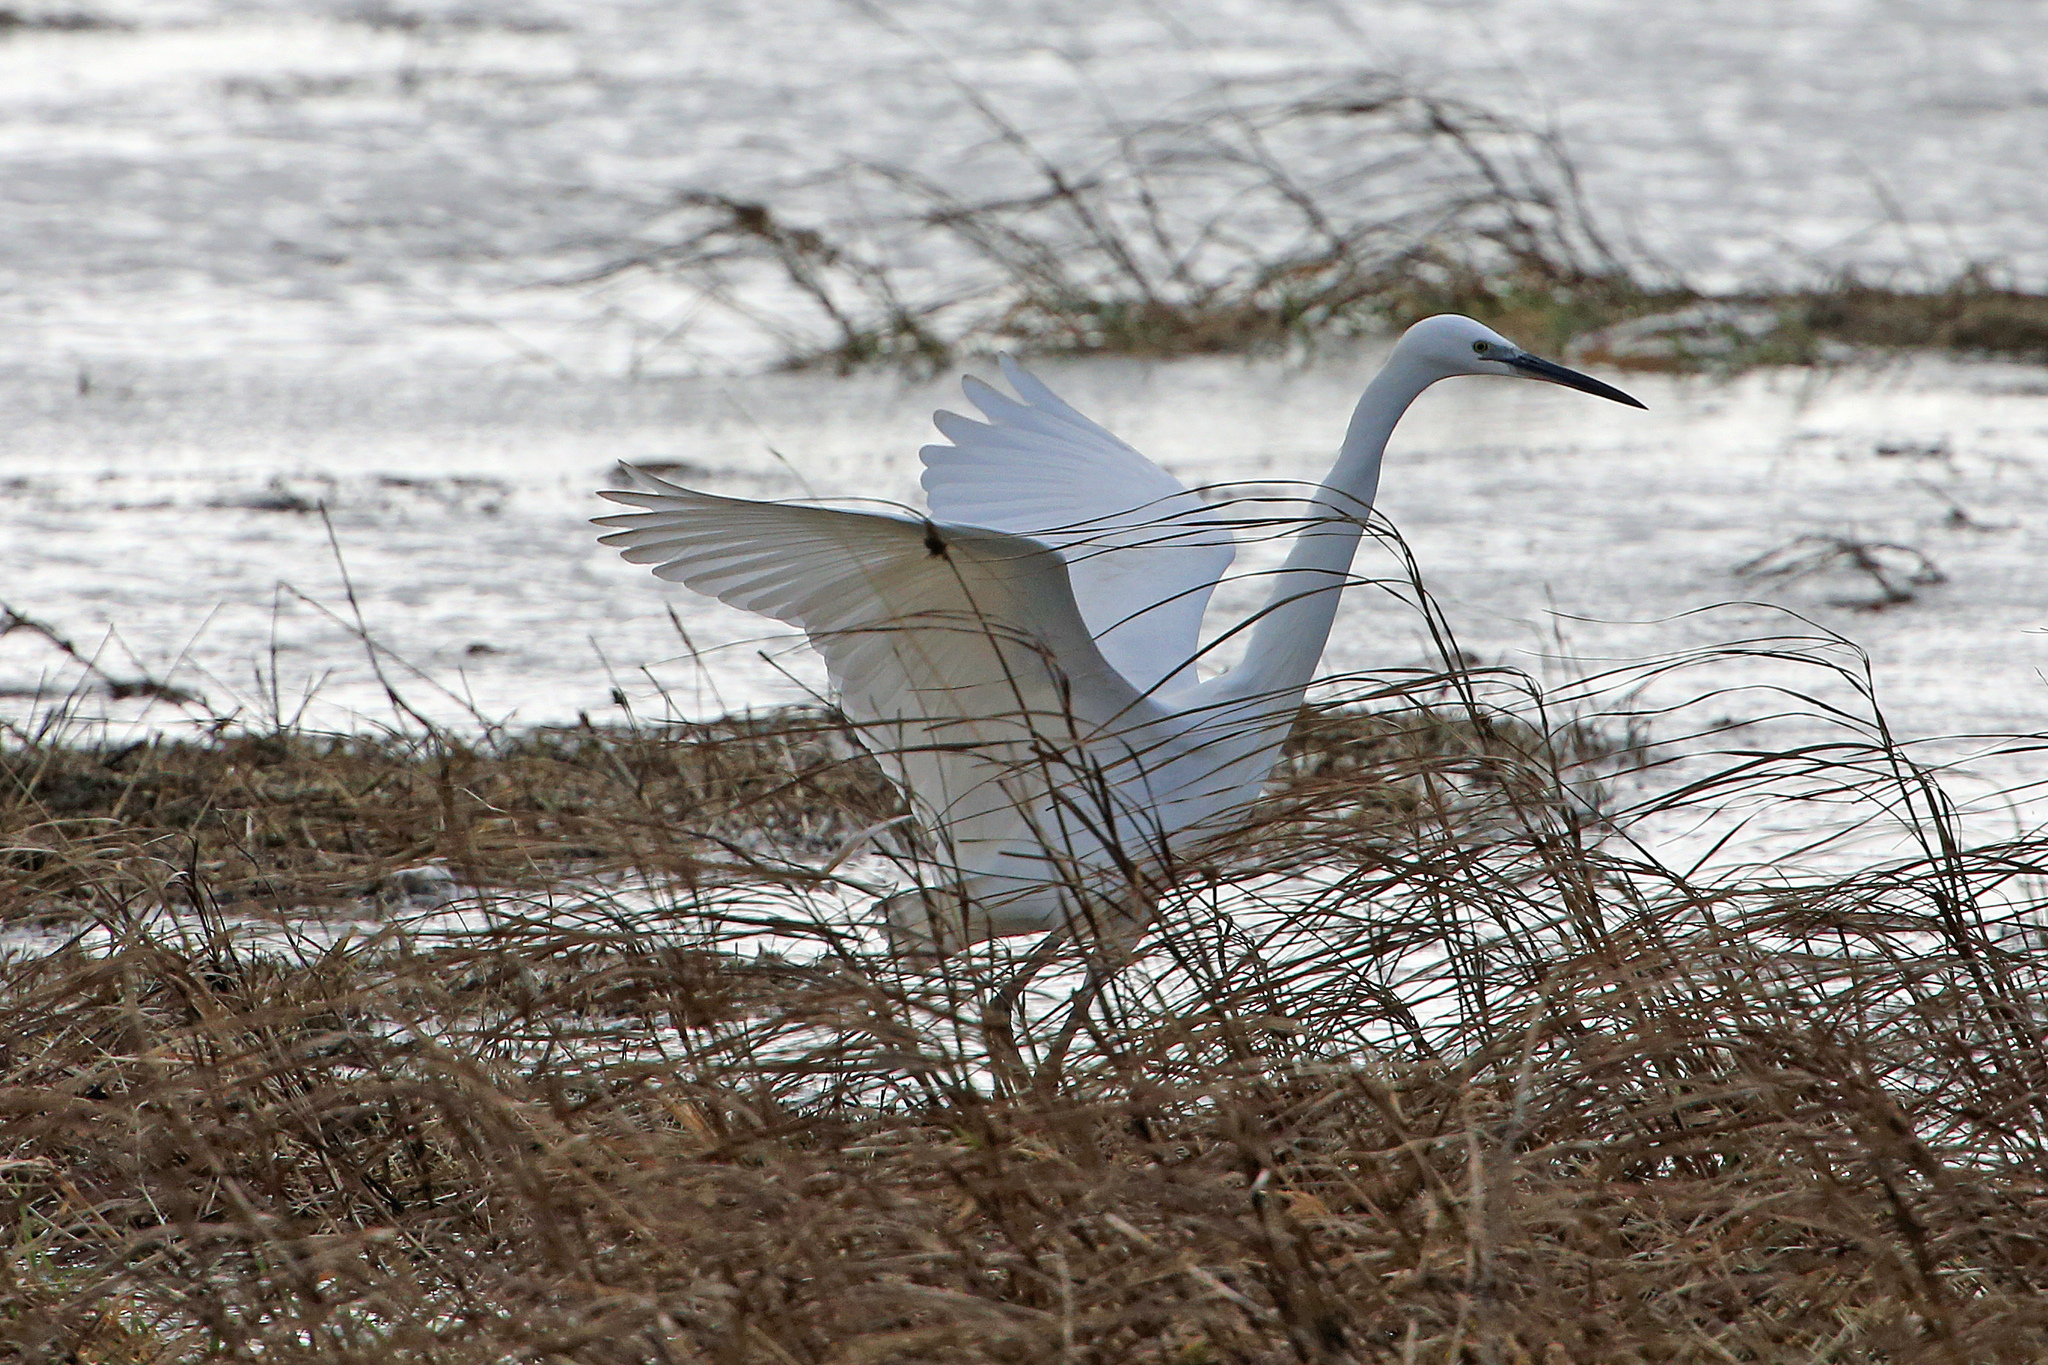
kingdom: Animalia
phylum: Chordata
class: Aves
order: Pelecaniformes
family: Ardeidae
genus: Egretta
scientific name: Egretta garzetta
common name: Little egret
